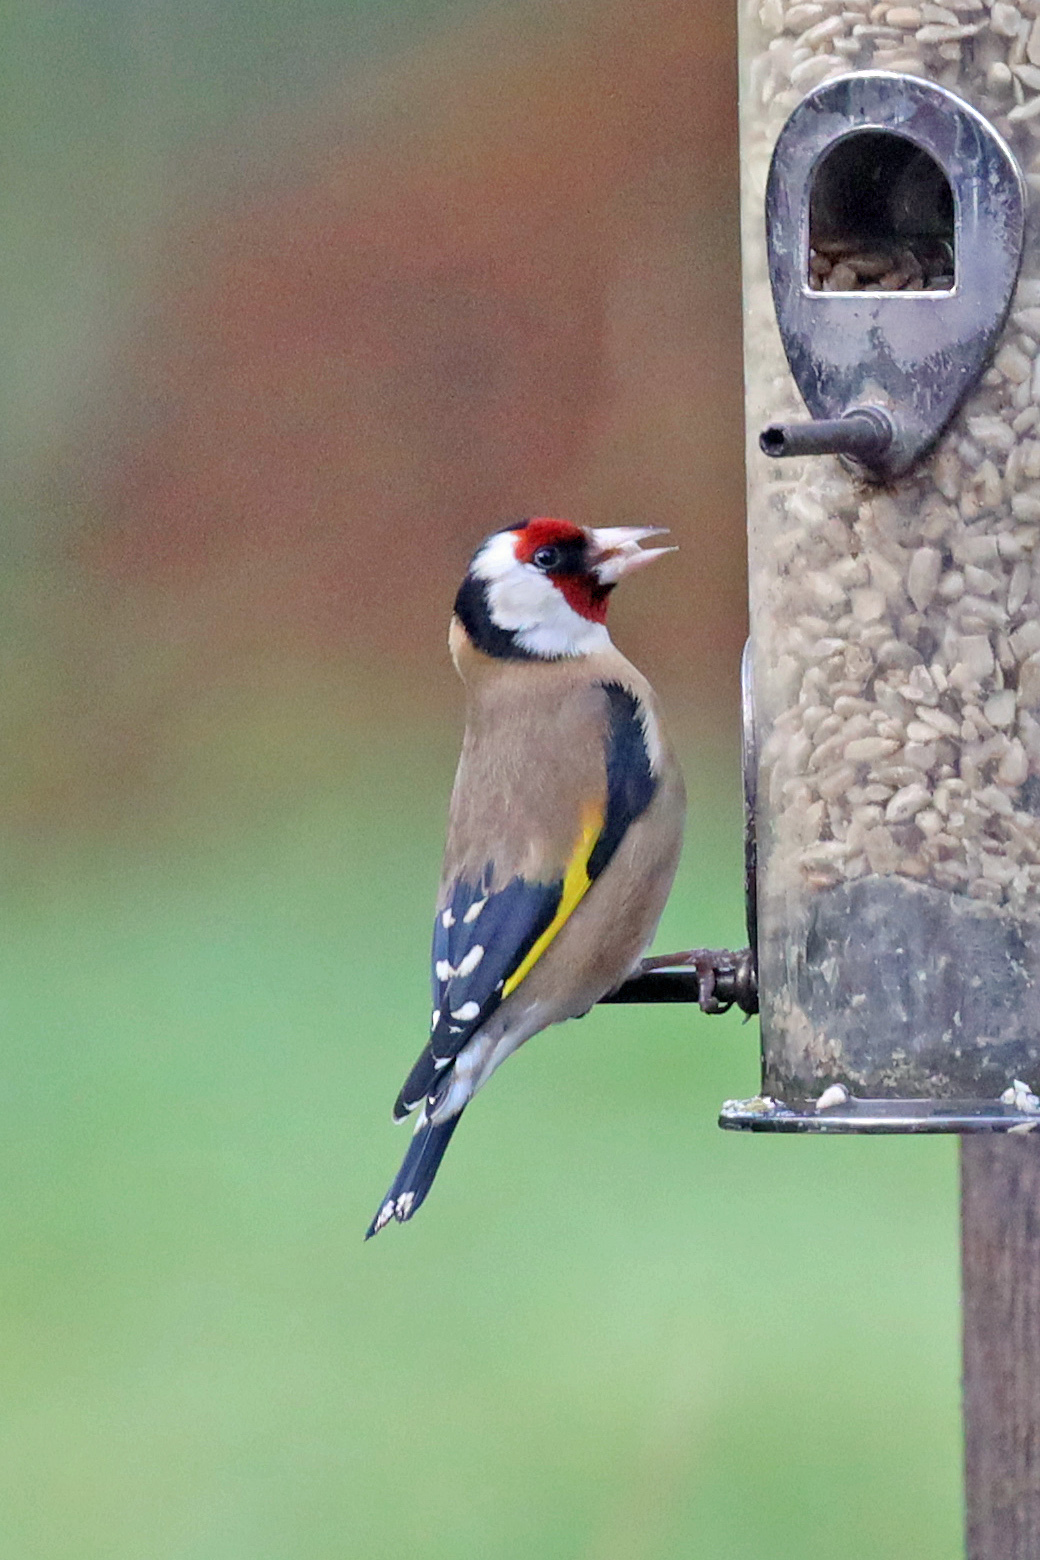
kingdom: Animalia
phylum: Chordata
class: Aves
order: Passeriformes
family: Fringillidae
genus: Carduelis
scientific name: Carduelis carduelis
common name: European goldfinch
